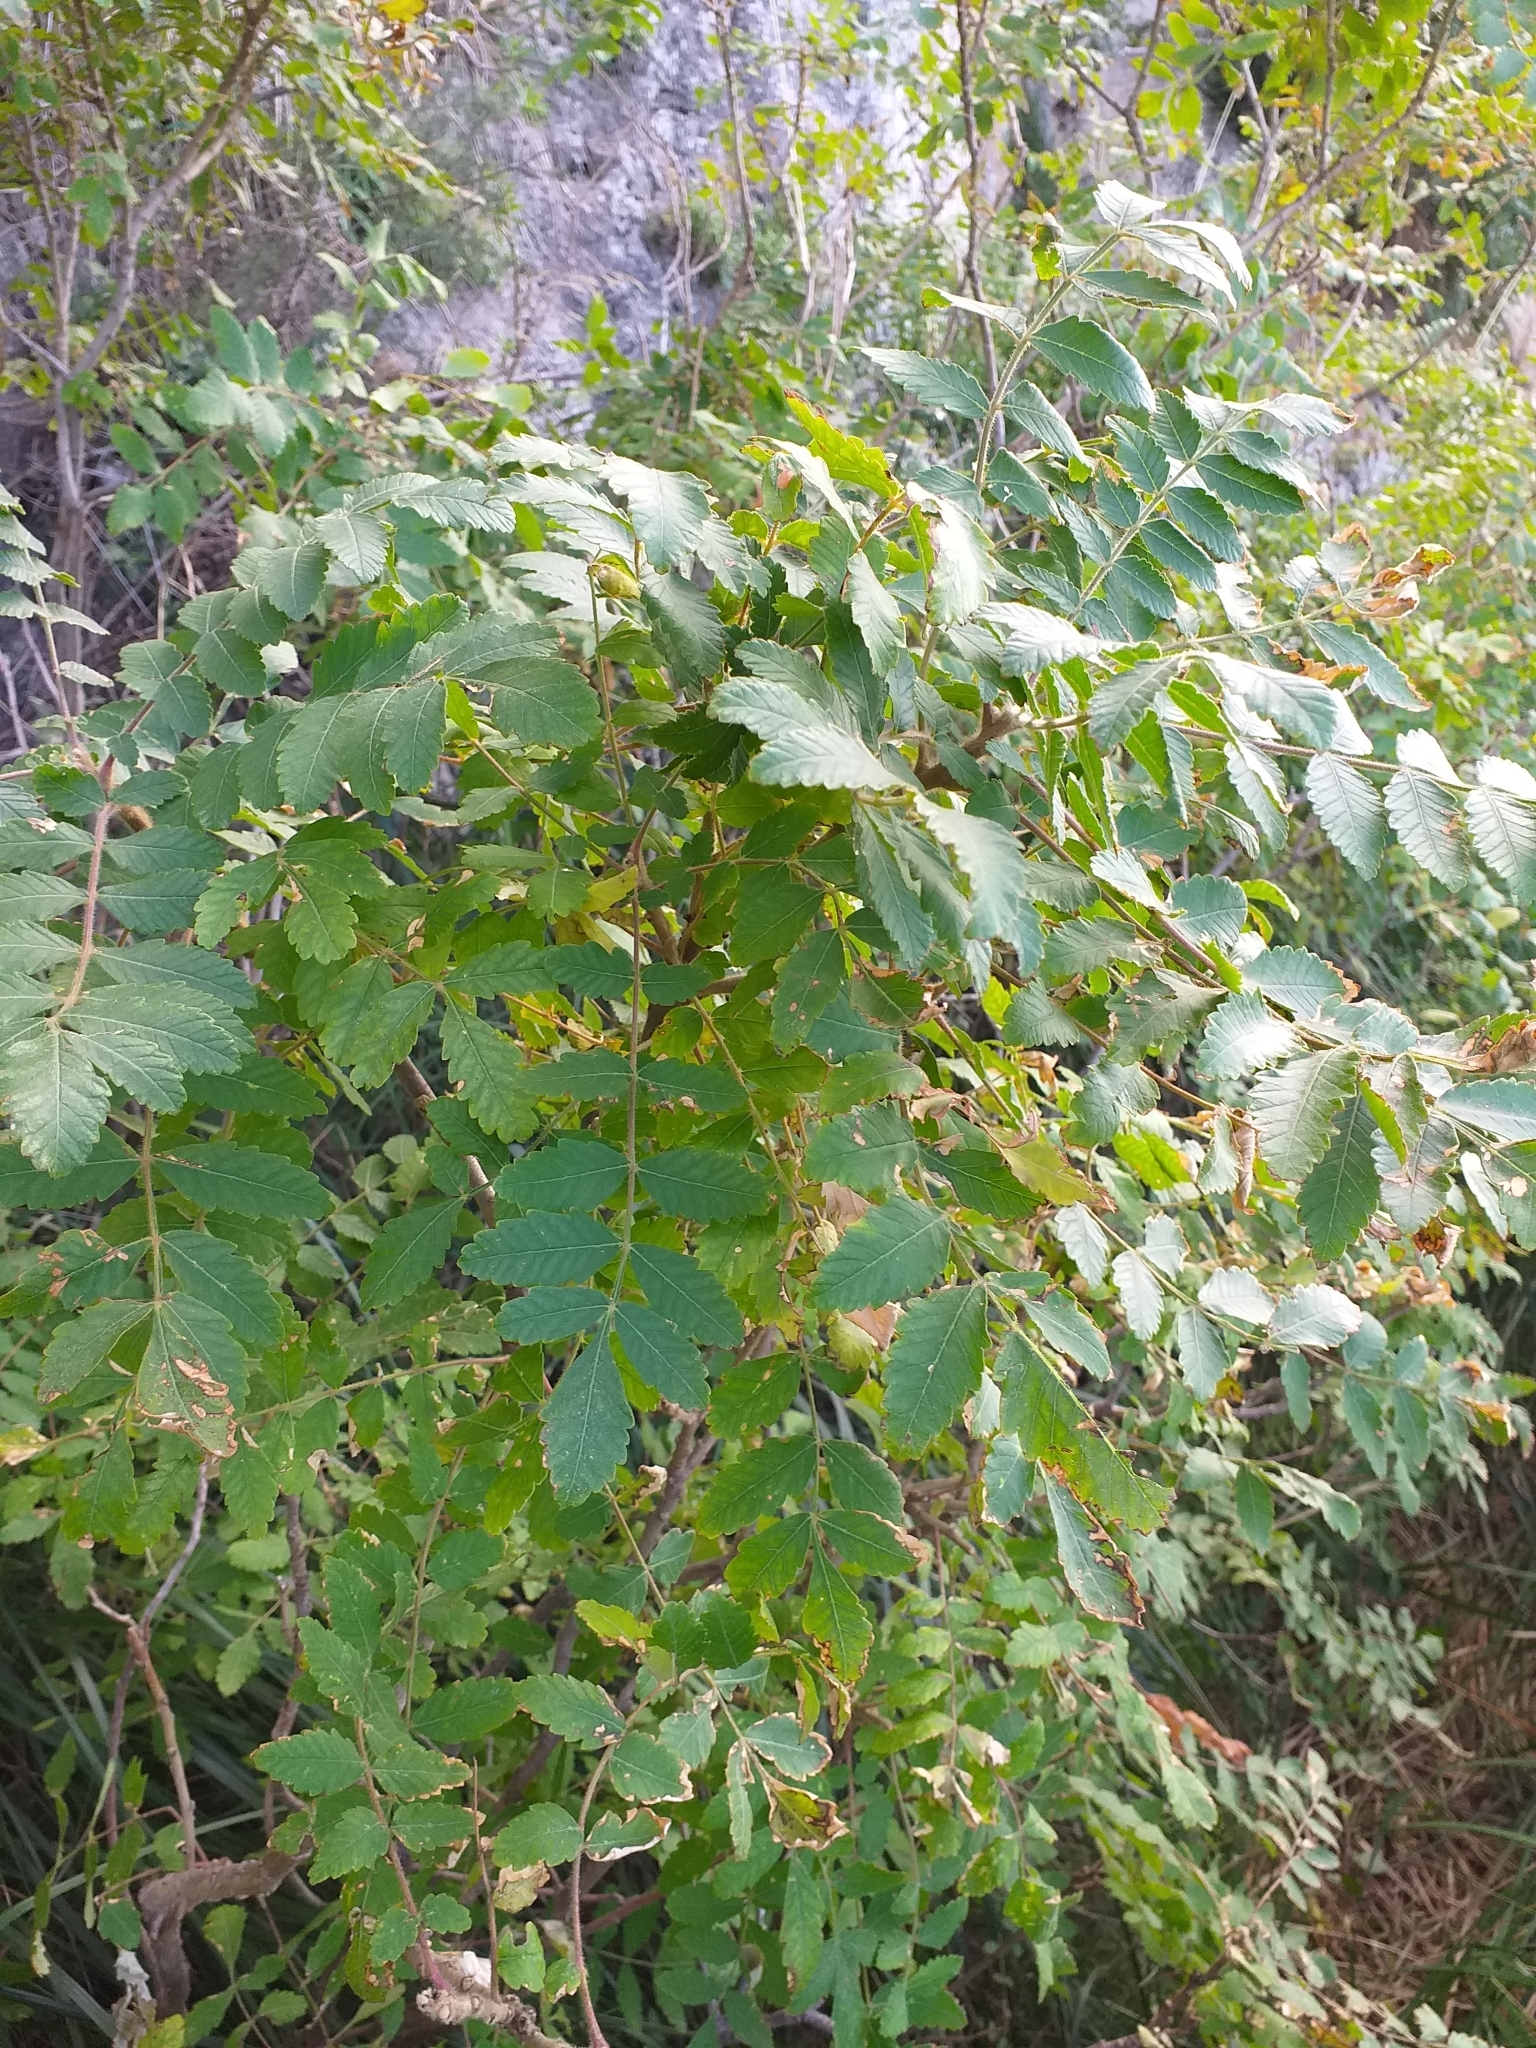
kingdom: Plantae
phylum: Tracheophyta
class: Magnoliopsida
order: Sapindales
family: Anacardiaceae
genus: Rhus
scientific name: Rhus coriaria
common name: Tanner's sumach
